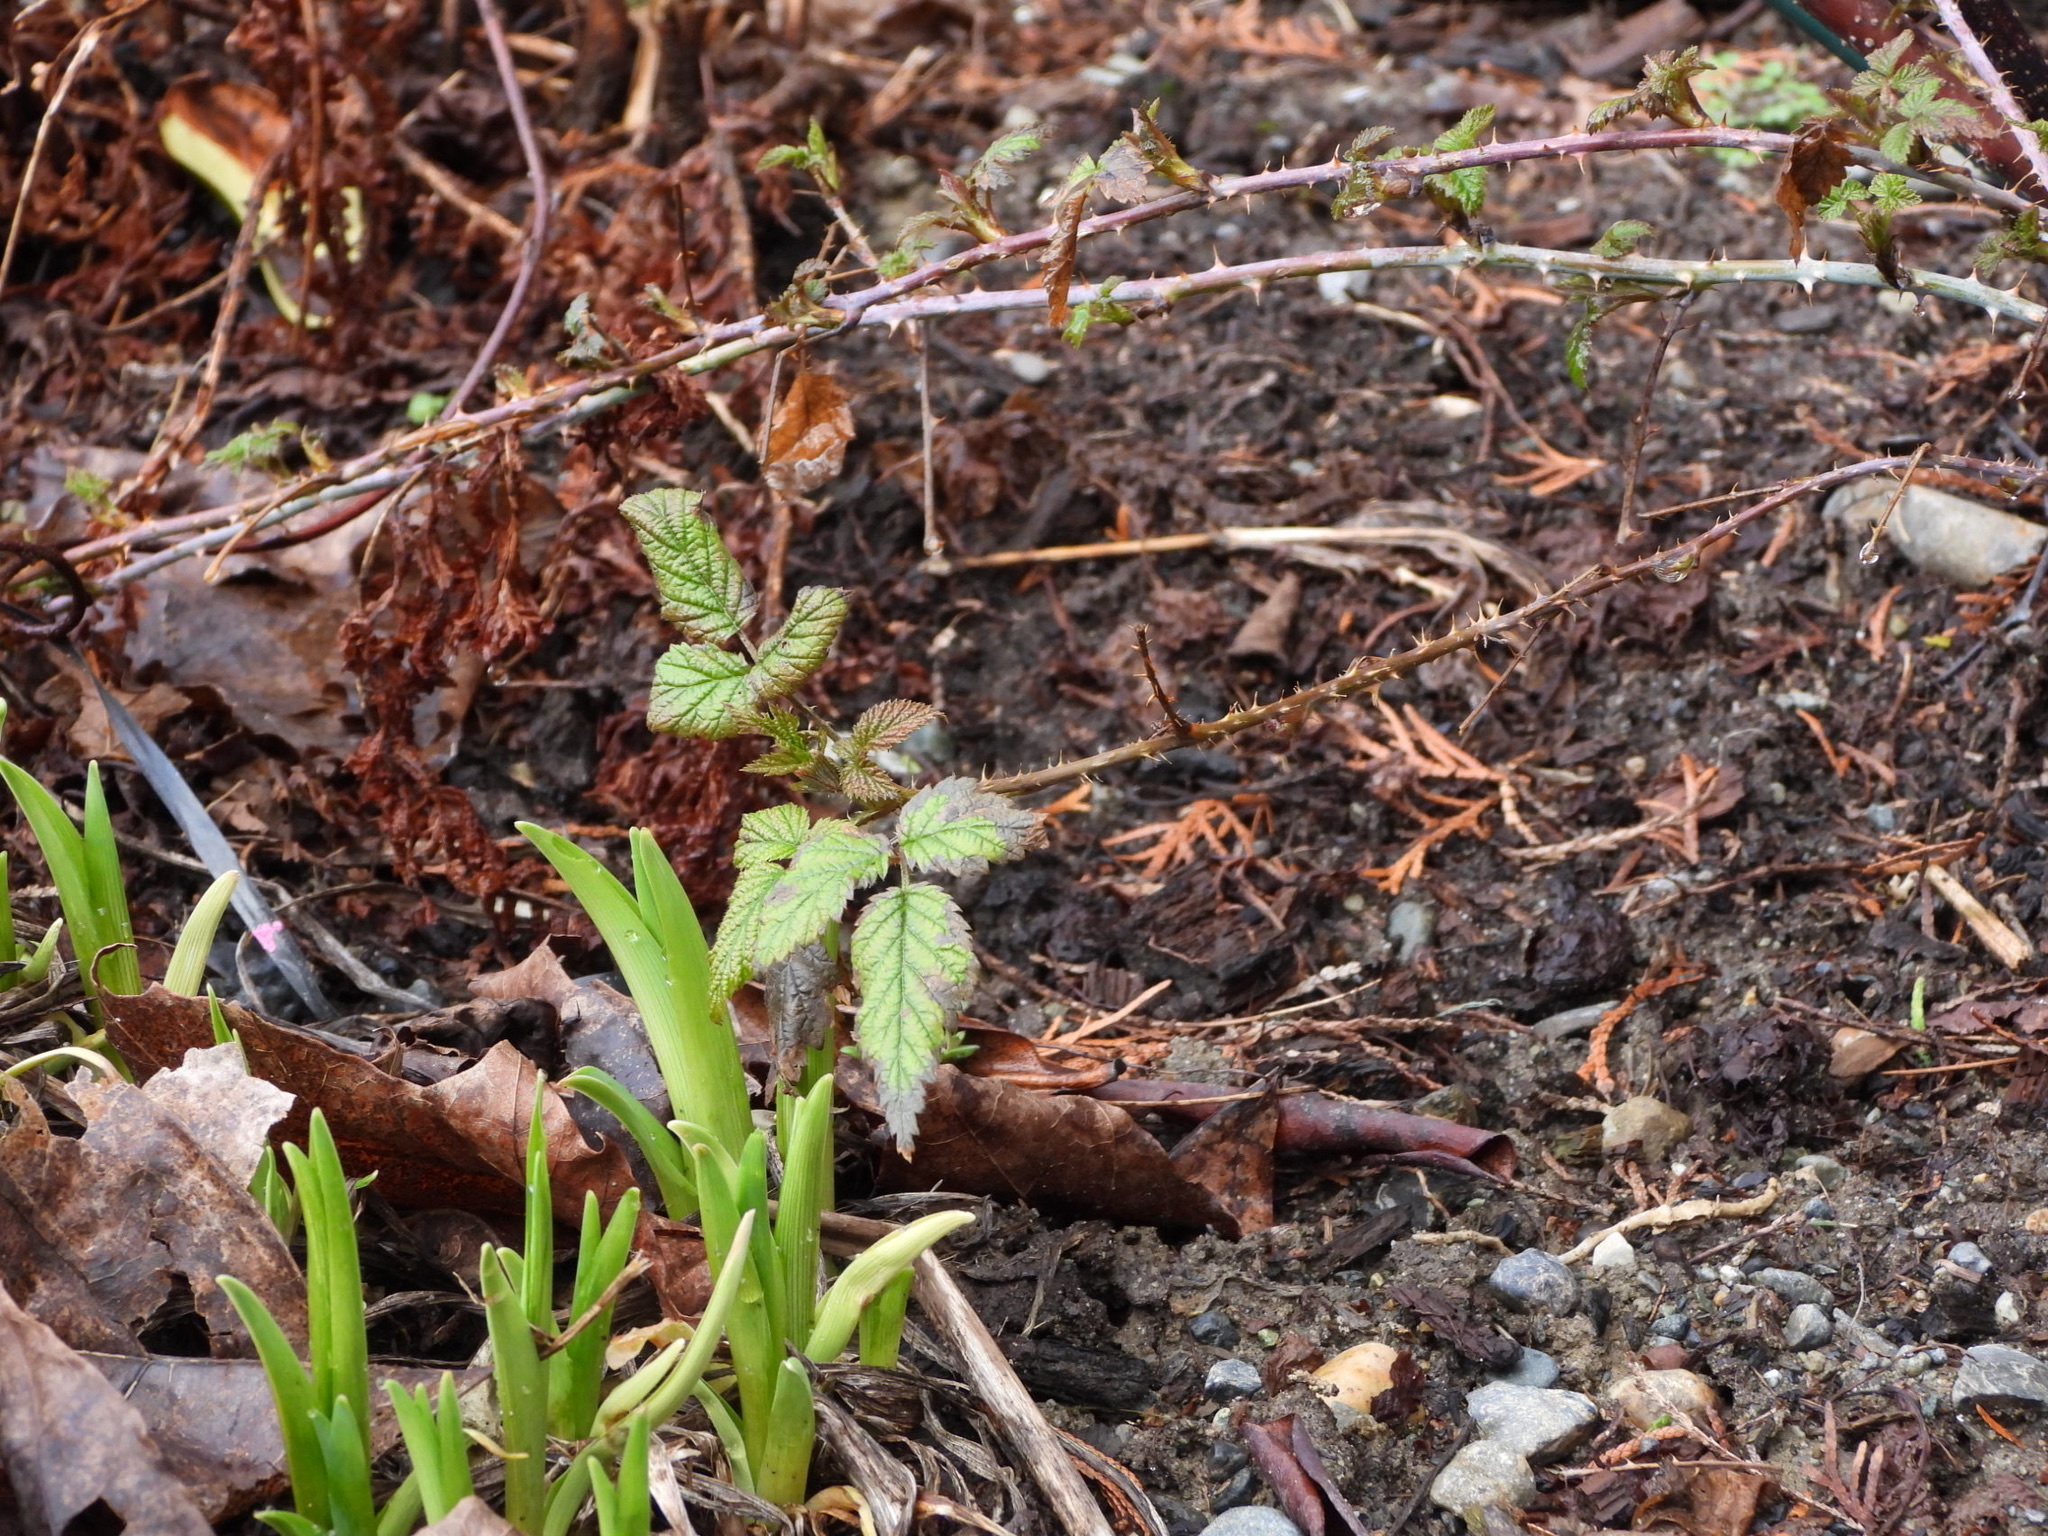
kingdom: Plantae
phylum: Tracheophyta
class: Magnoliopsida
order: Rosales
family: Rosaceae
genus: Rubus
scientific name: Rubus ursinus
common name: Pacific blackberry
